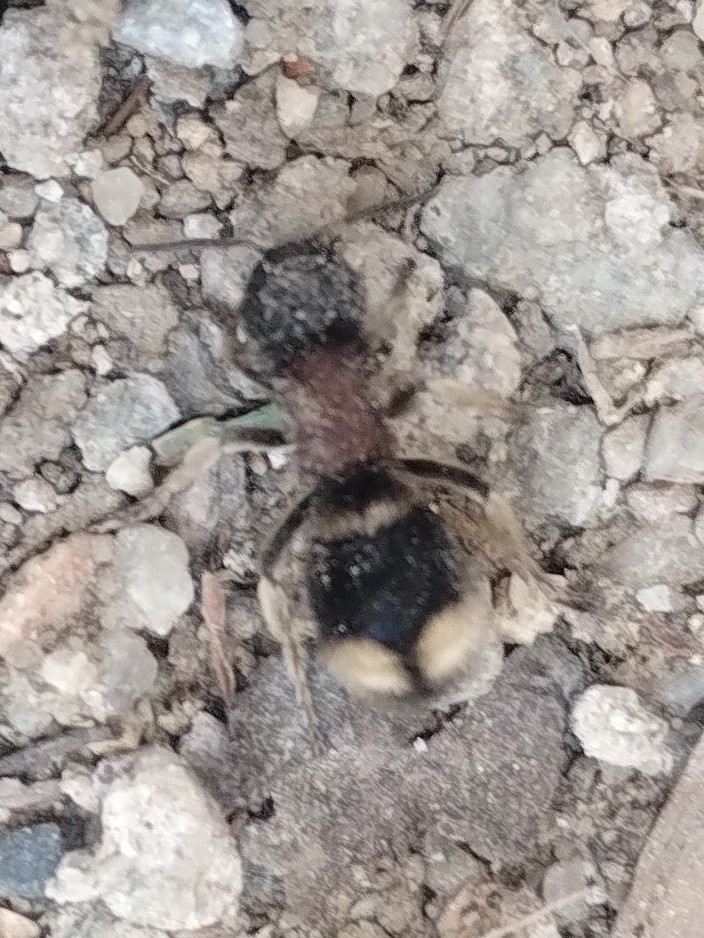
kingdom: Animalia
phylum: Arthropoda
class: Insecta
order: Hymenoptera
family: Mutillidae
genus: Mutilla
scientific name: Mutilla marginata
